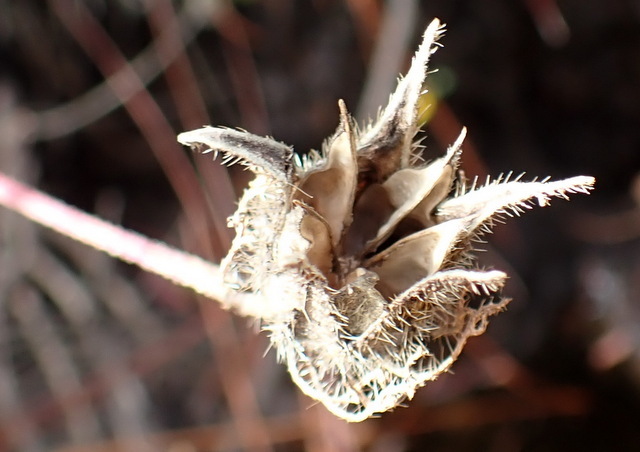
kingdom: Plantae
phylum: Tracheophyta
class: Magnoliopsida
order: Malvales
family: Malvaceae
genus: Hibiscus
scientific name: Hibiscus aculeatus
